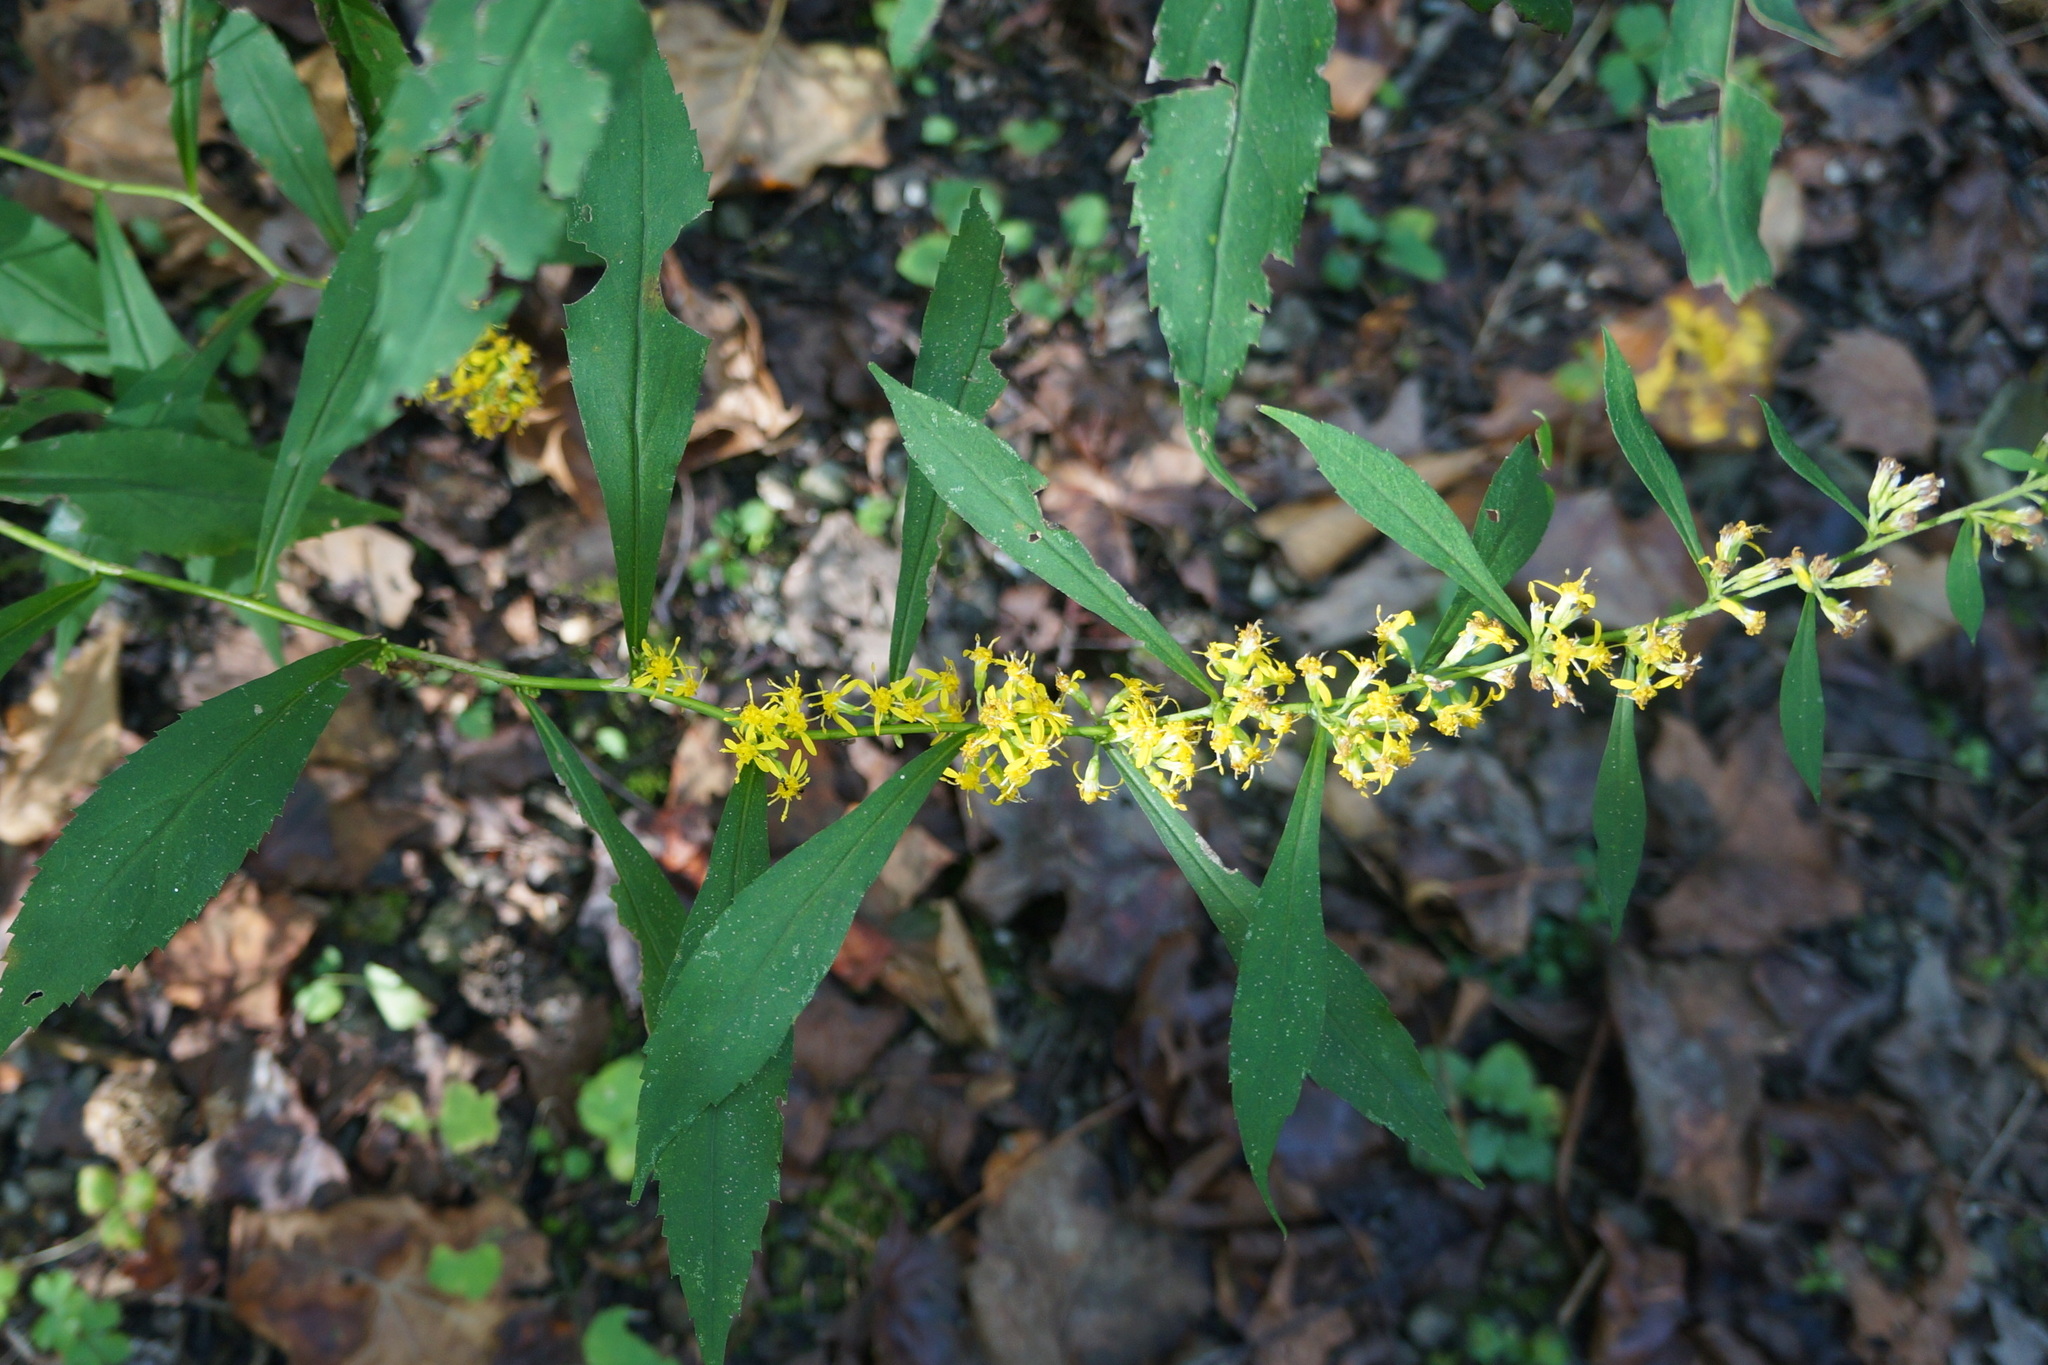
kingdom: Plantae
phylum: Tracheophyta
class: Magnoliopsida
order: Asterales
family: Asteraceae
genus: Solidago
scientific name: Solidago caesia
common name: Woodland goldenrod
